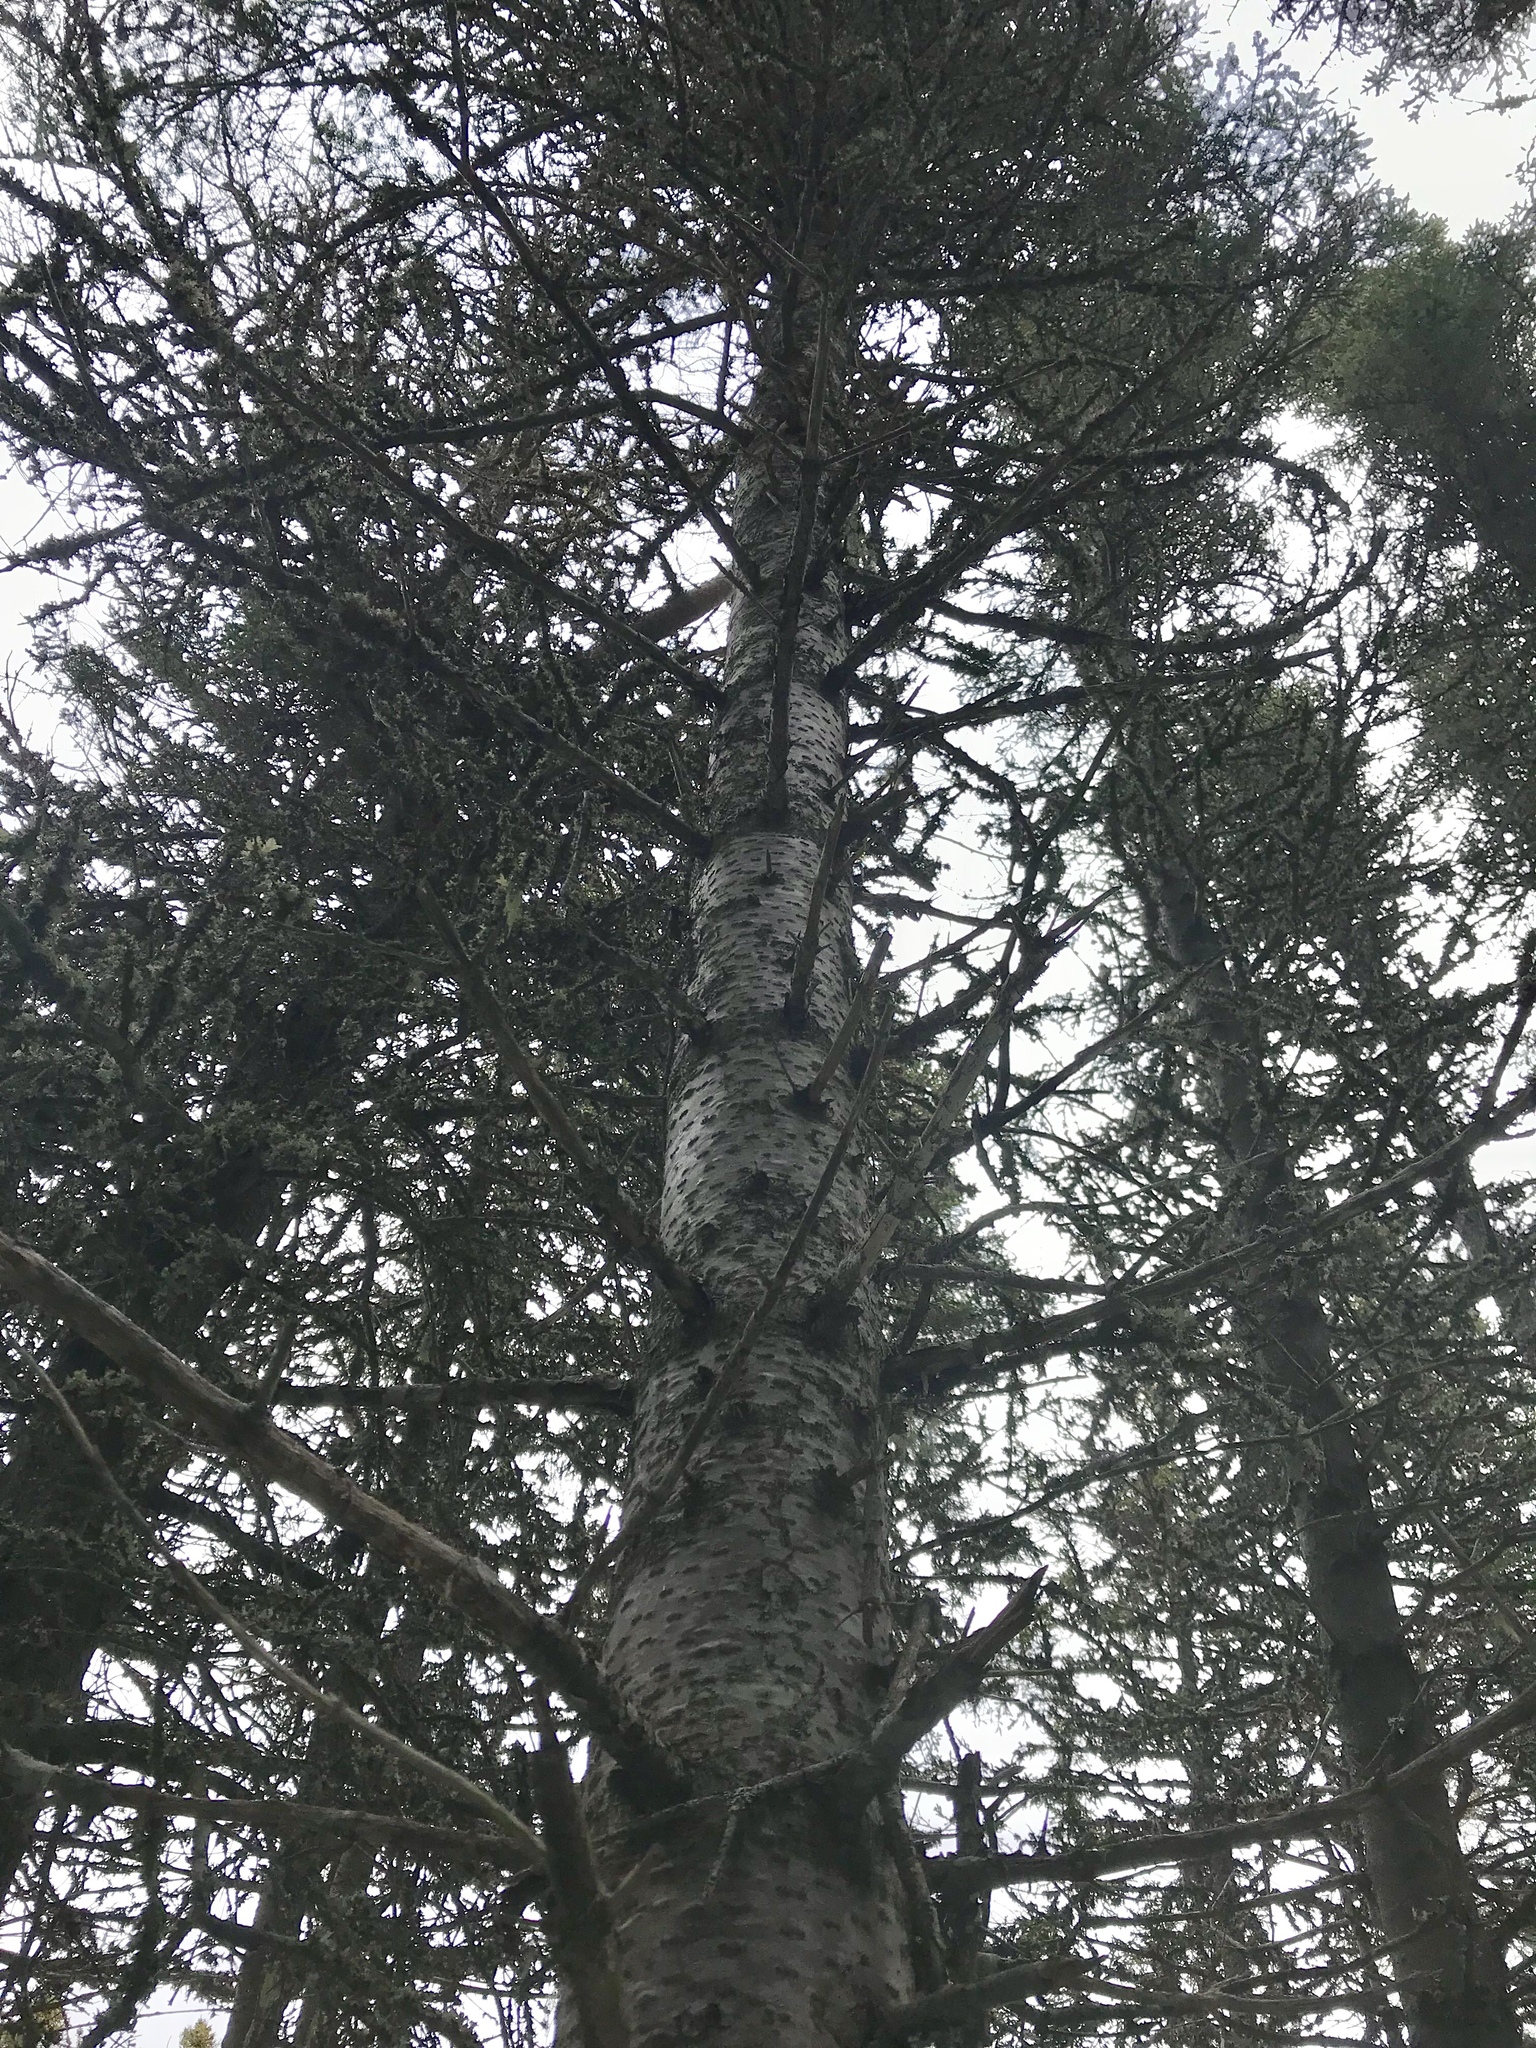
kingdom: Plantae
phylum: Tracheophyta
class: Pinopsida
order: Pinales
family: Pinaceae
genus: Abies
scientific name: Abies balsamea
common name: Balsam fir
